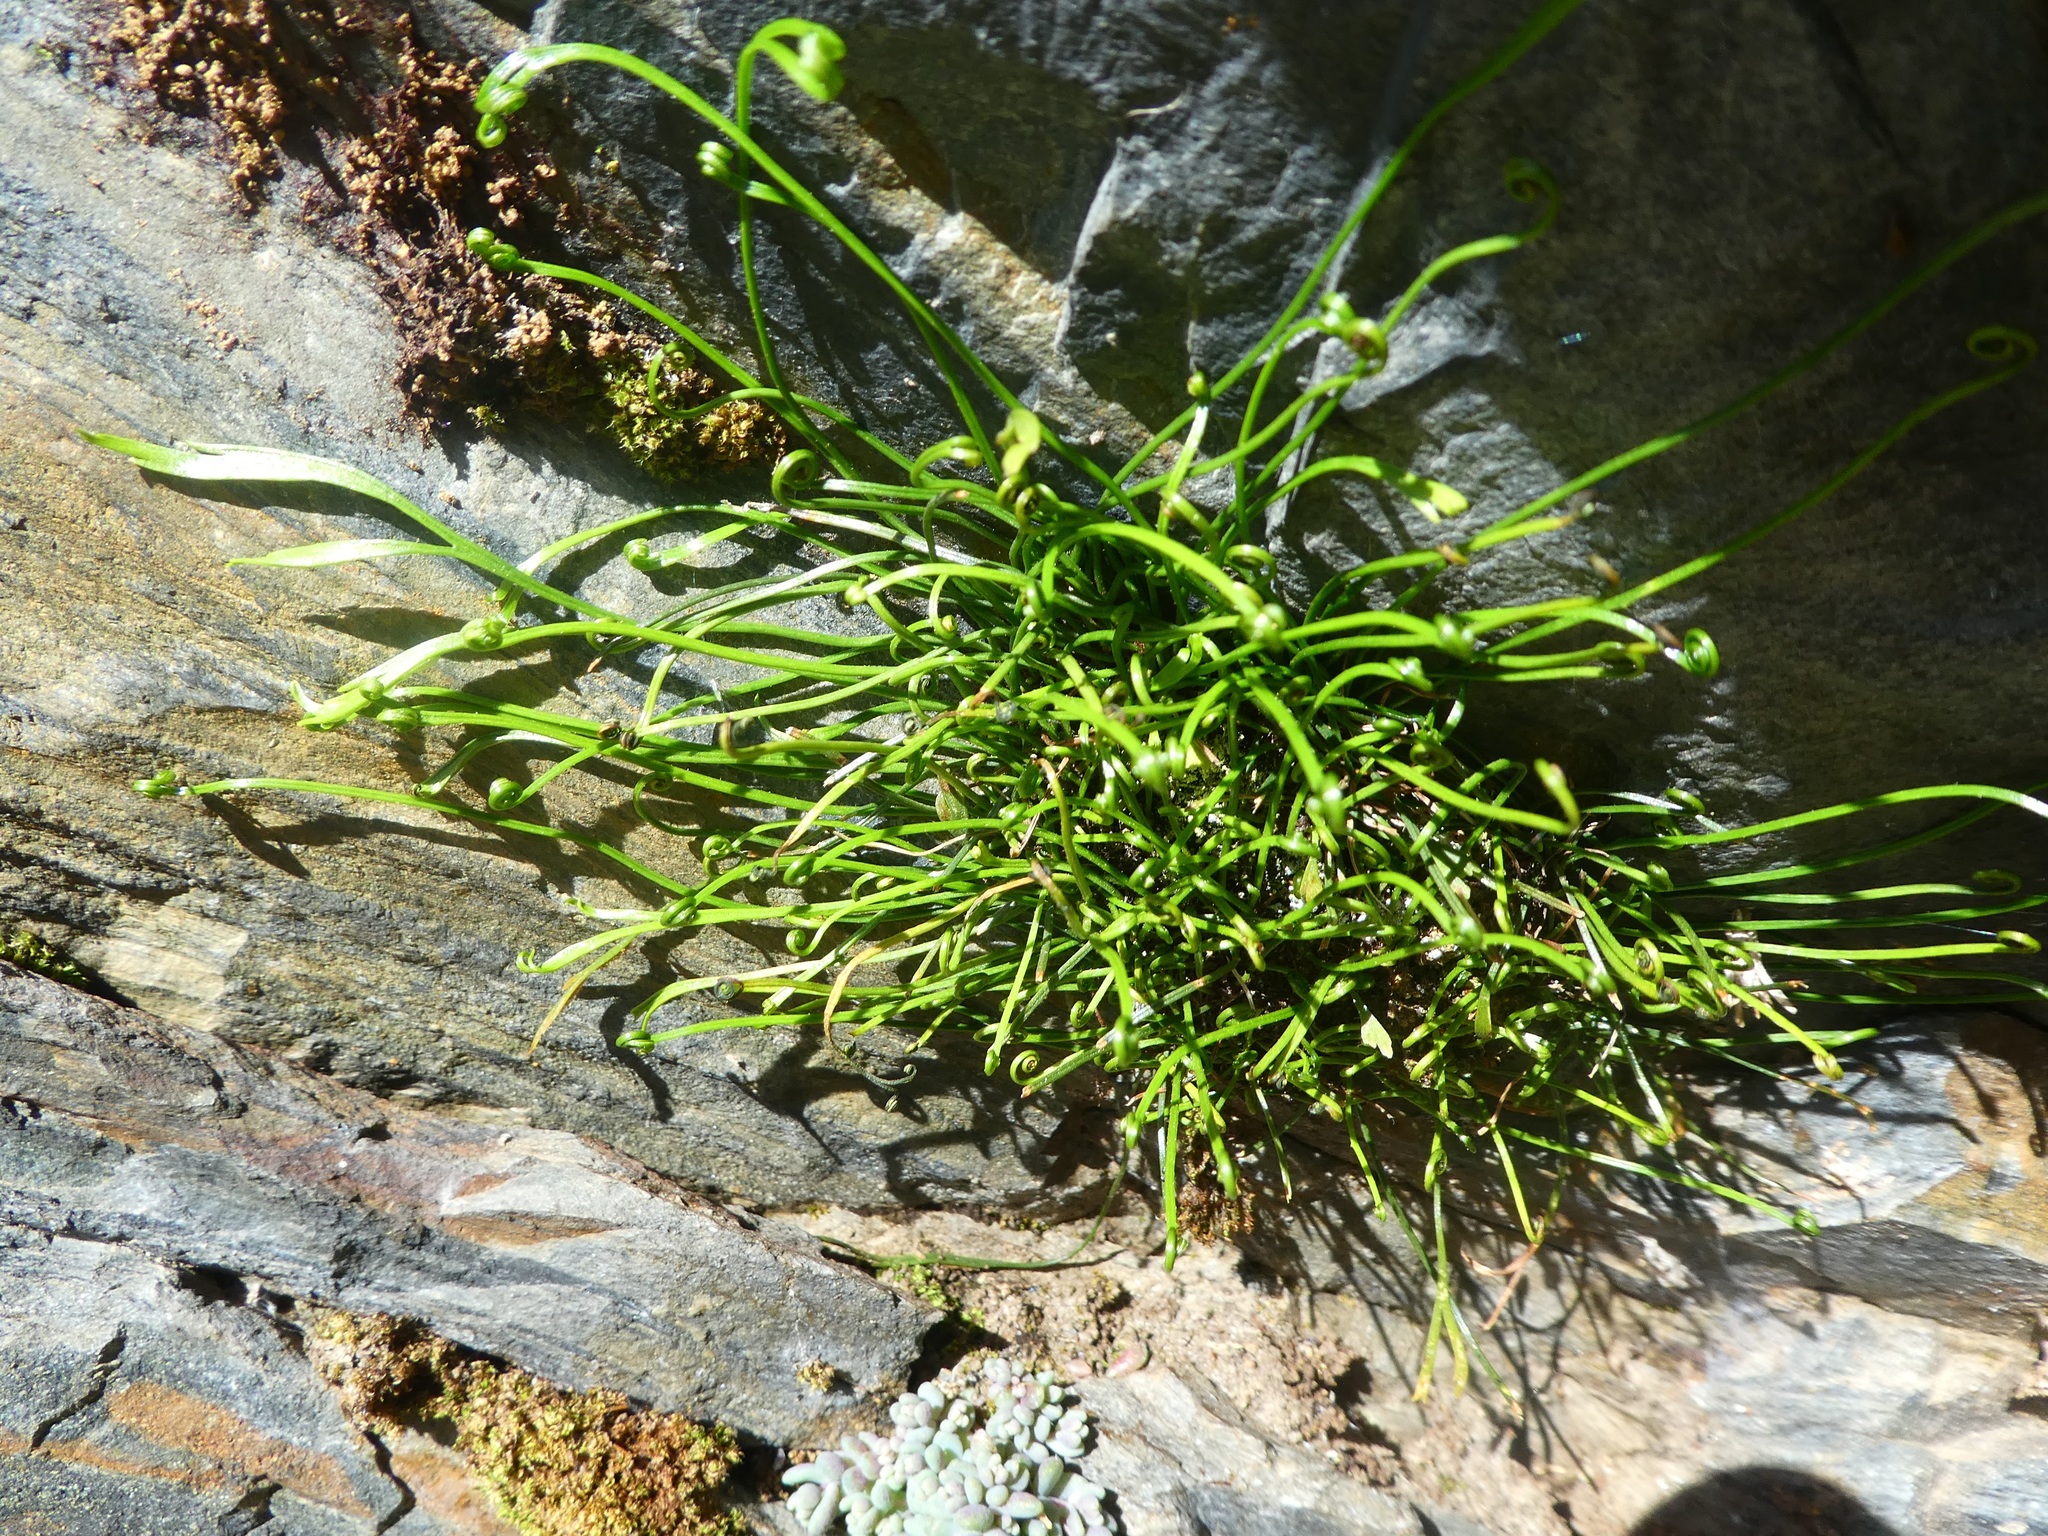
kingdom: Plantae
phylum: Tracheophyta
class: Polypodiopsida
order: Polypodiales
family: Aspleniaceae
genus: Asplenium
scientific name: Asplenium septentrionale
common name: Forked spleenwort
